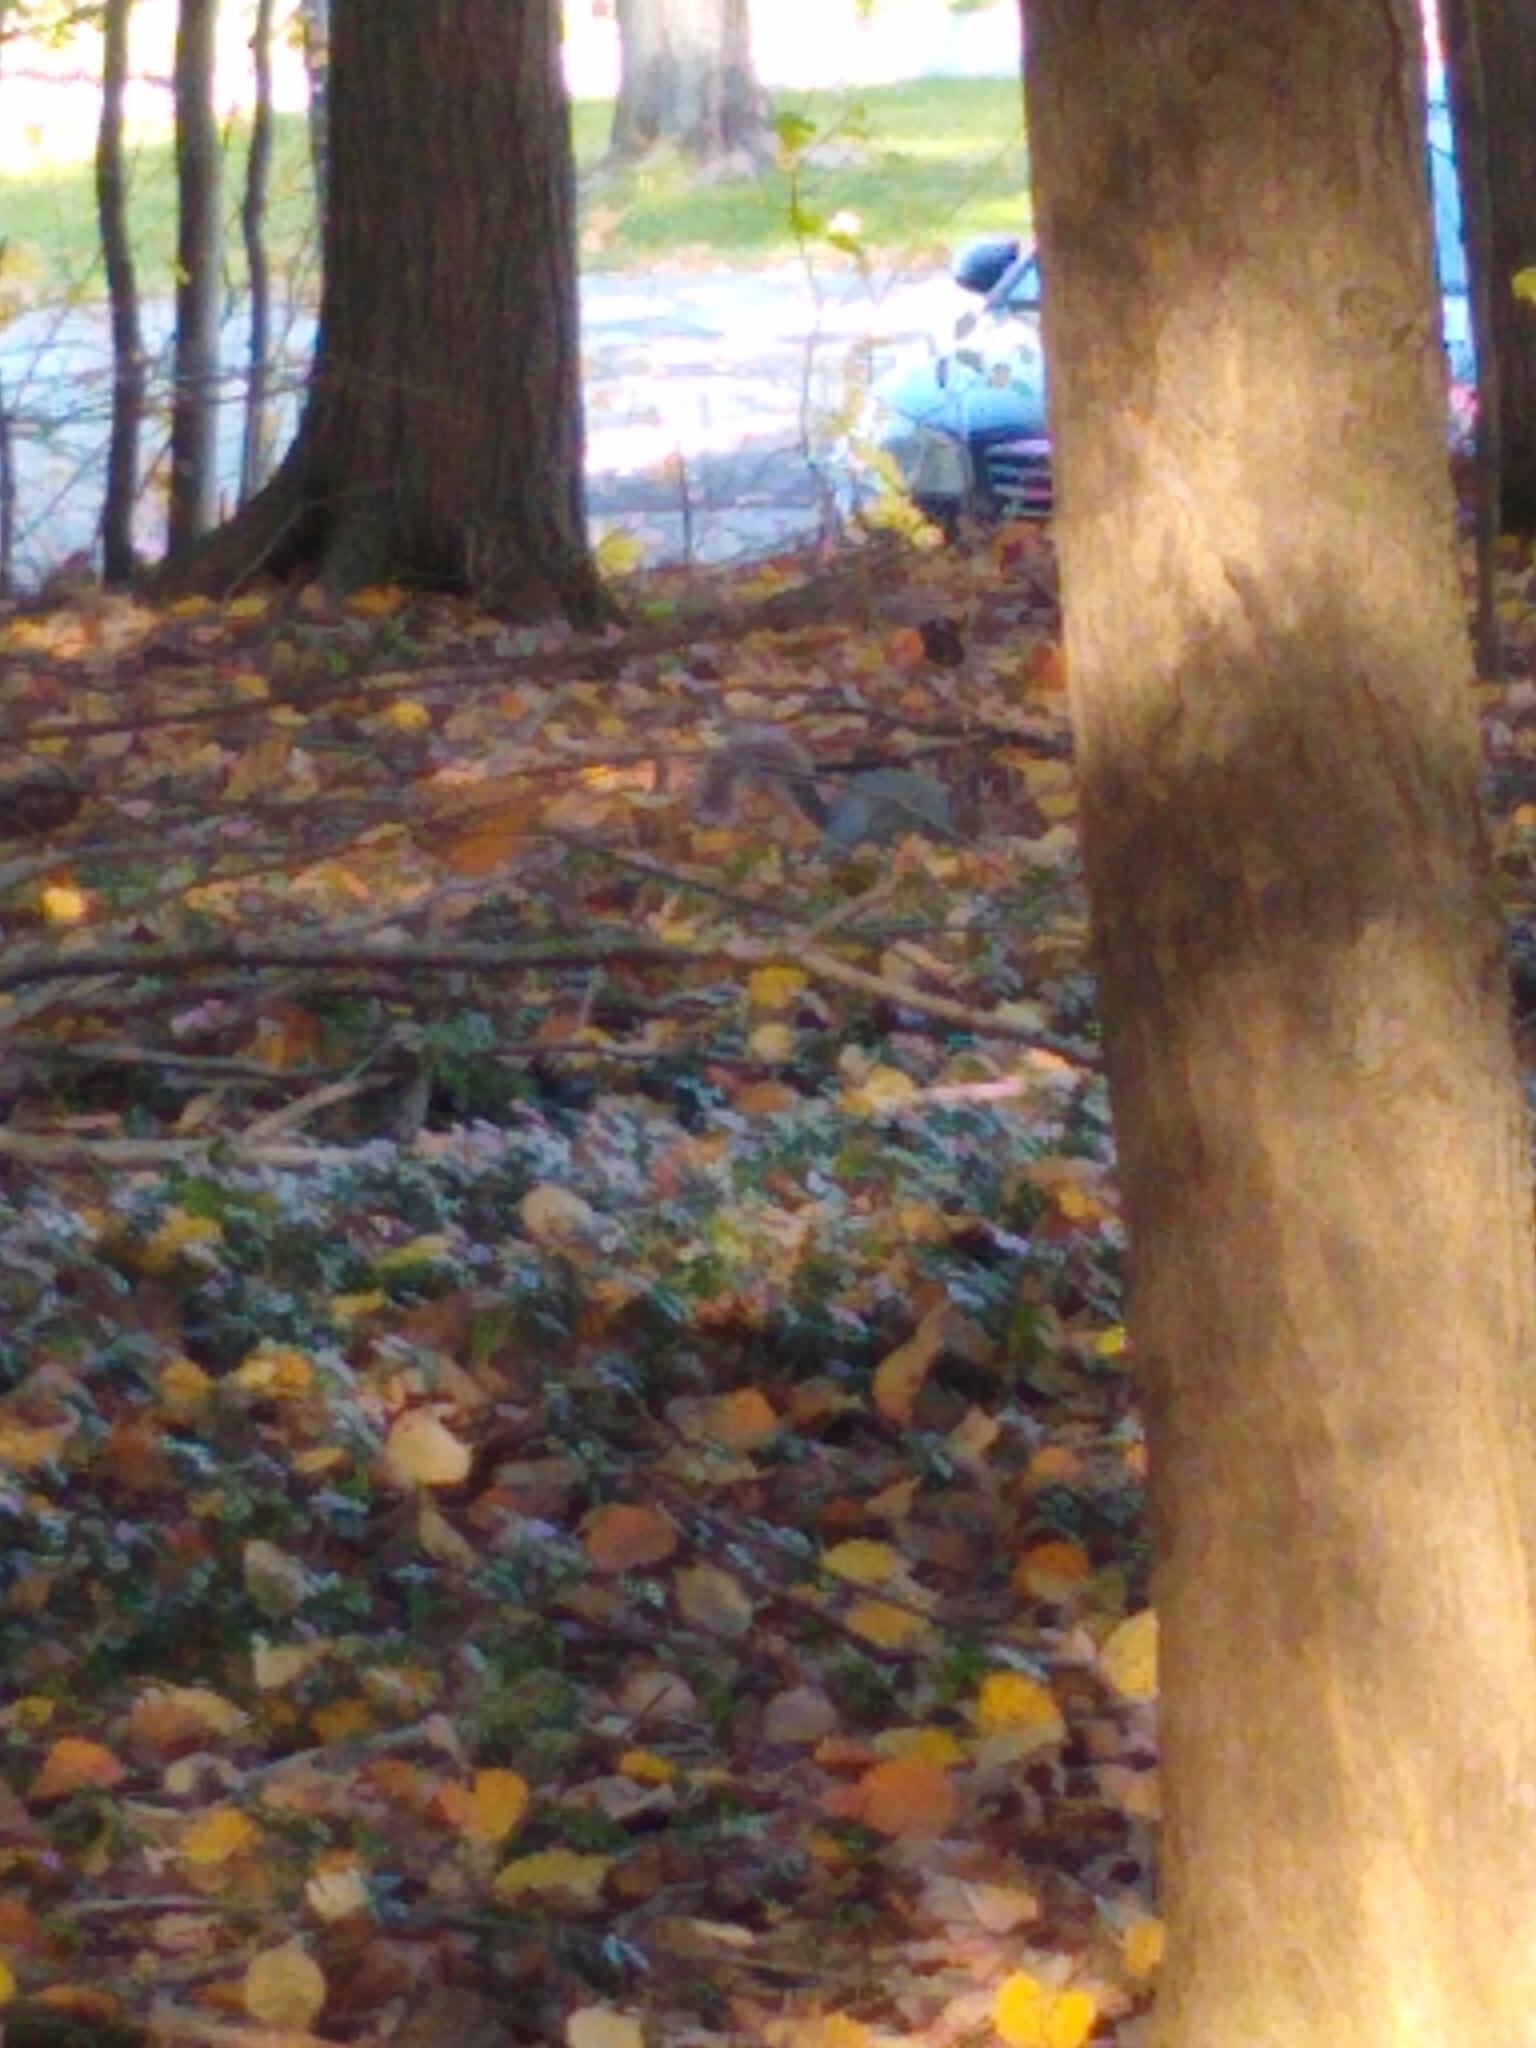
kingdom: Animalia
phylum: Chordata
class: Mammalia
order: Rodentia
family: Sciuridae
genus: Sciurus
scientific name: Sciurus carolinensis
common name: Eastern gray squirrel
